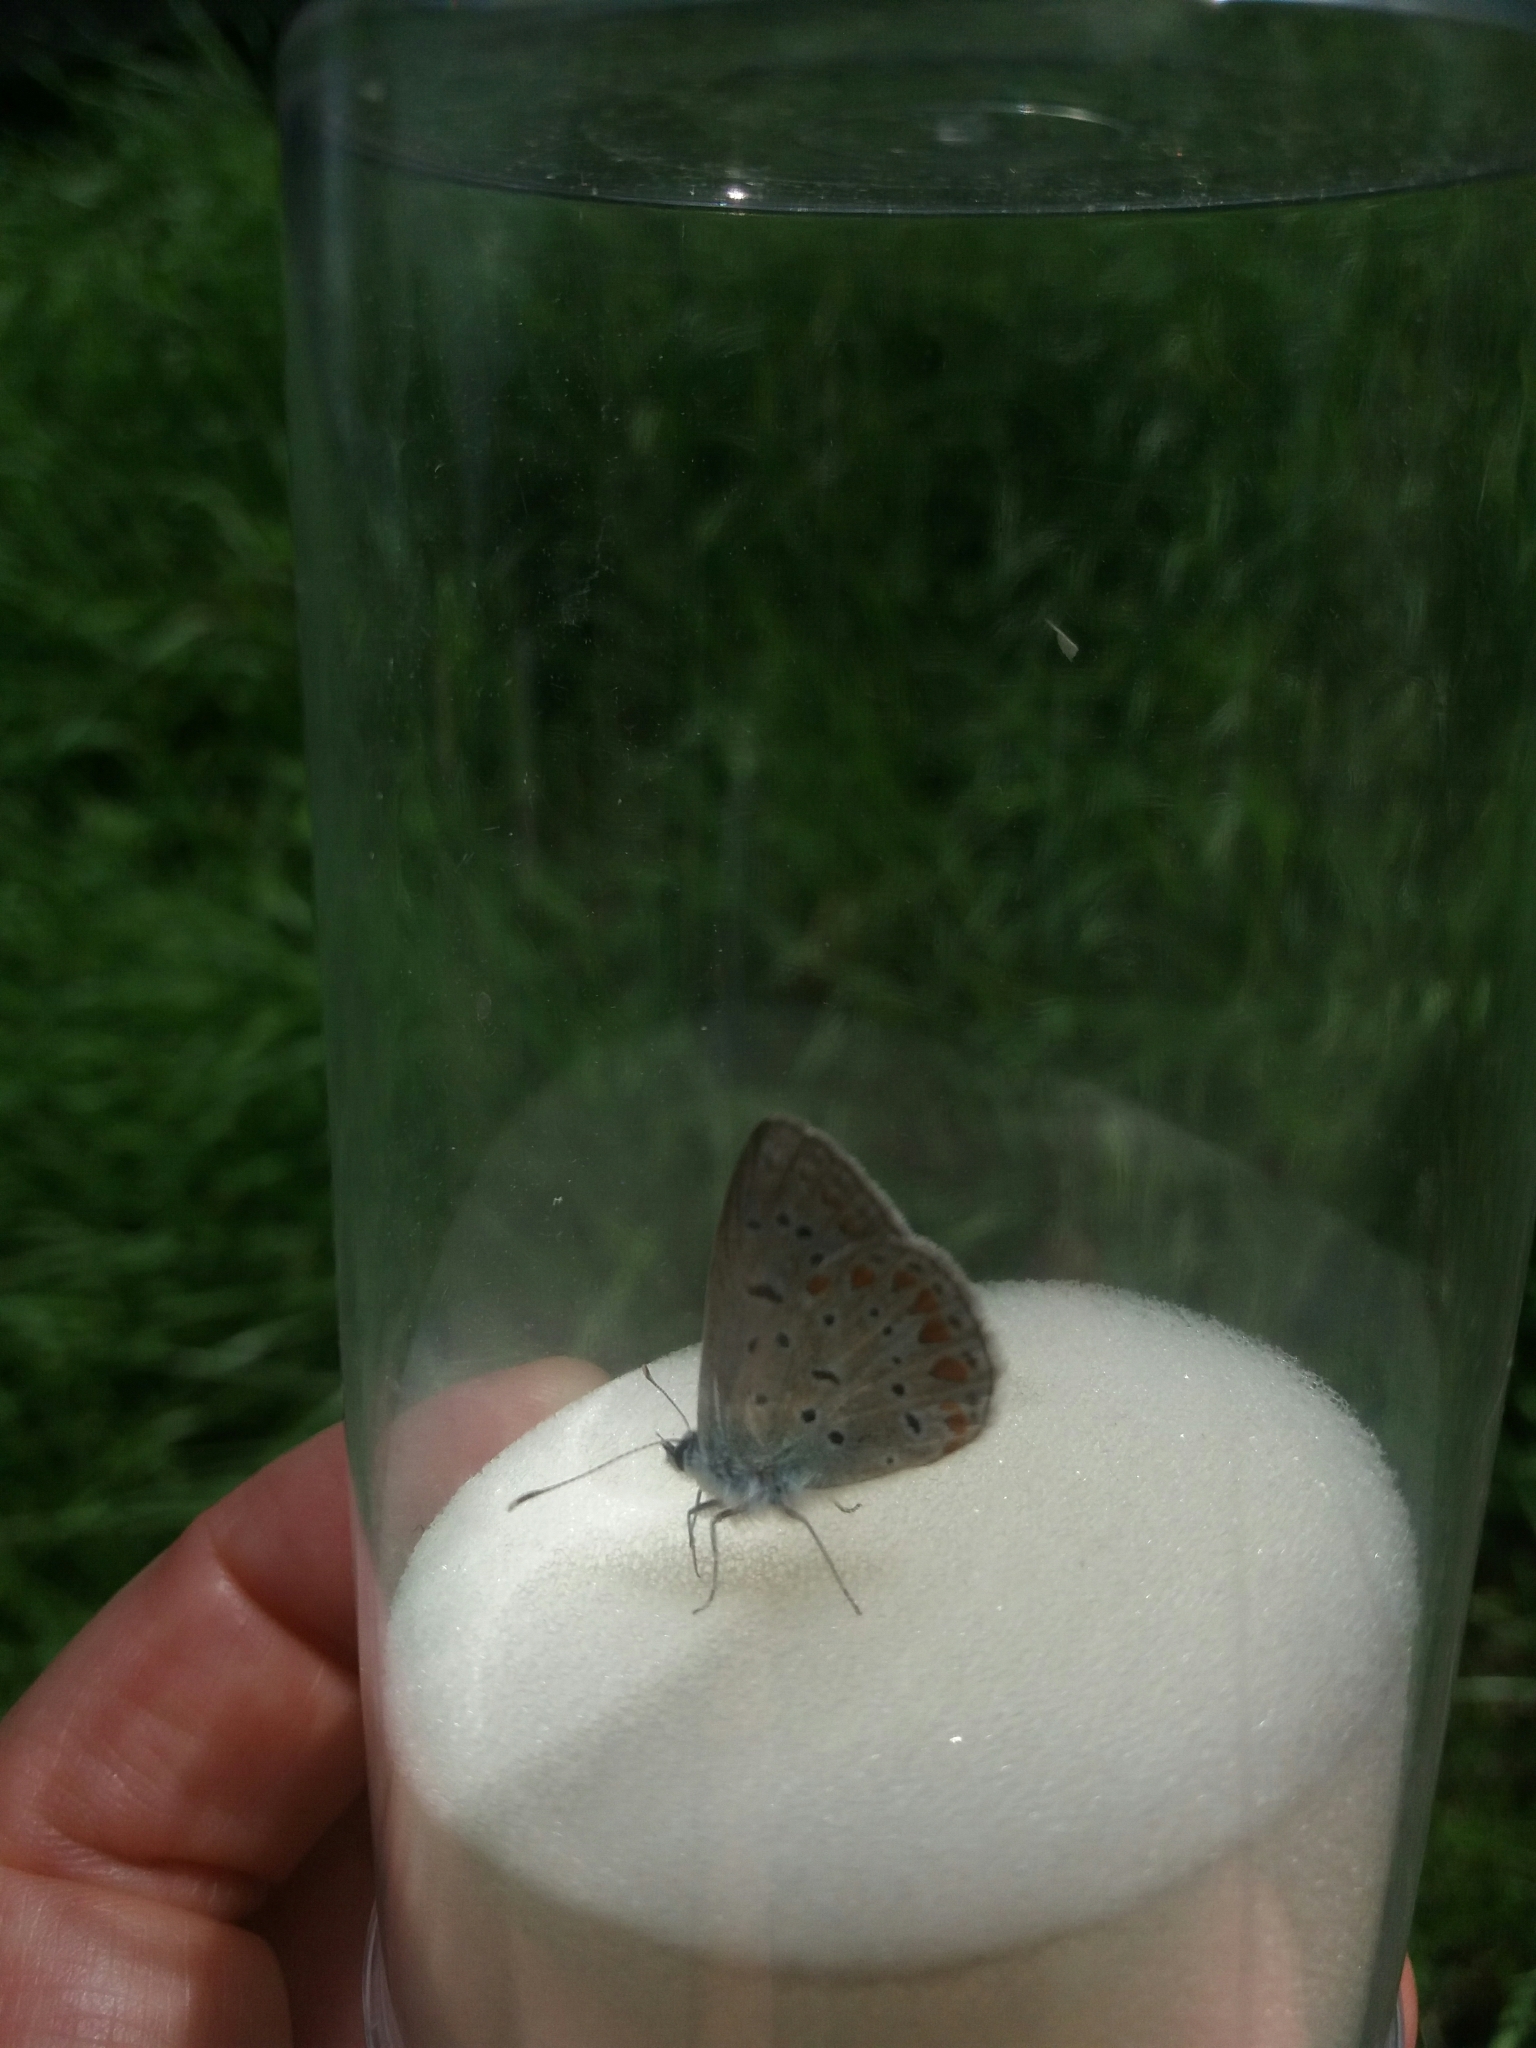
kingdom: Animalia
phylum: Arthropoda
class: Insecta
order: Lepidoptera
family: Lycaenidae
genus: Polyommatus
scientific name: Polyommatus icarus
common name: Common blue
